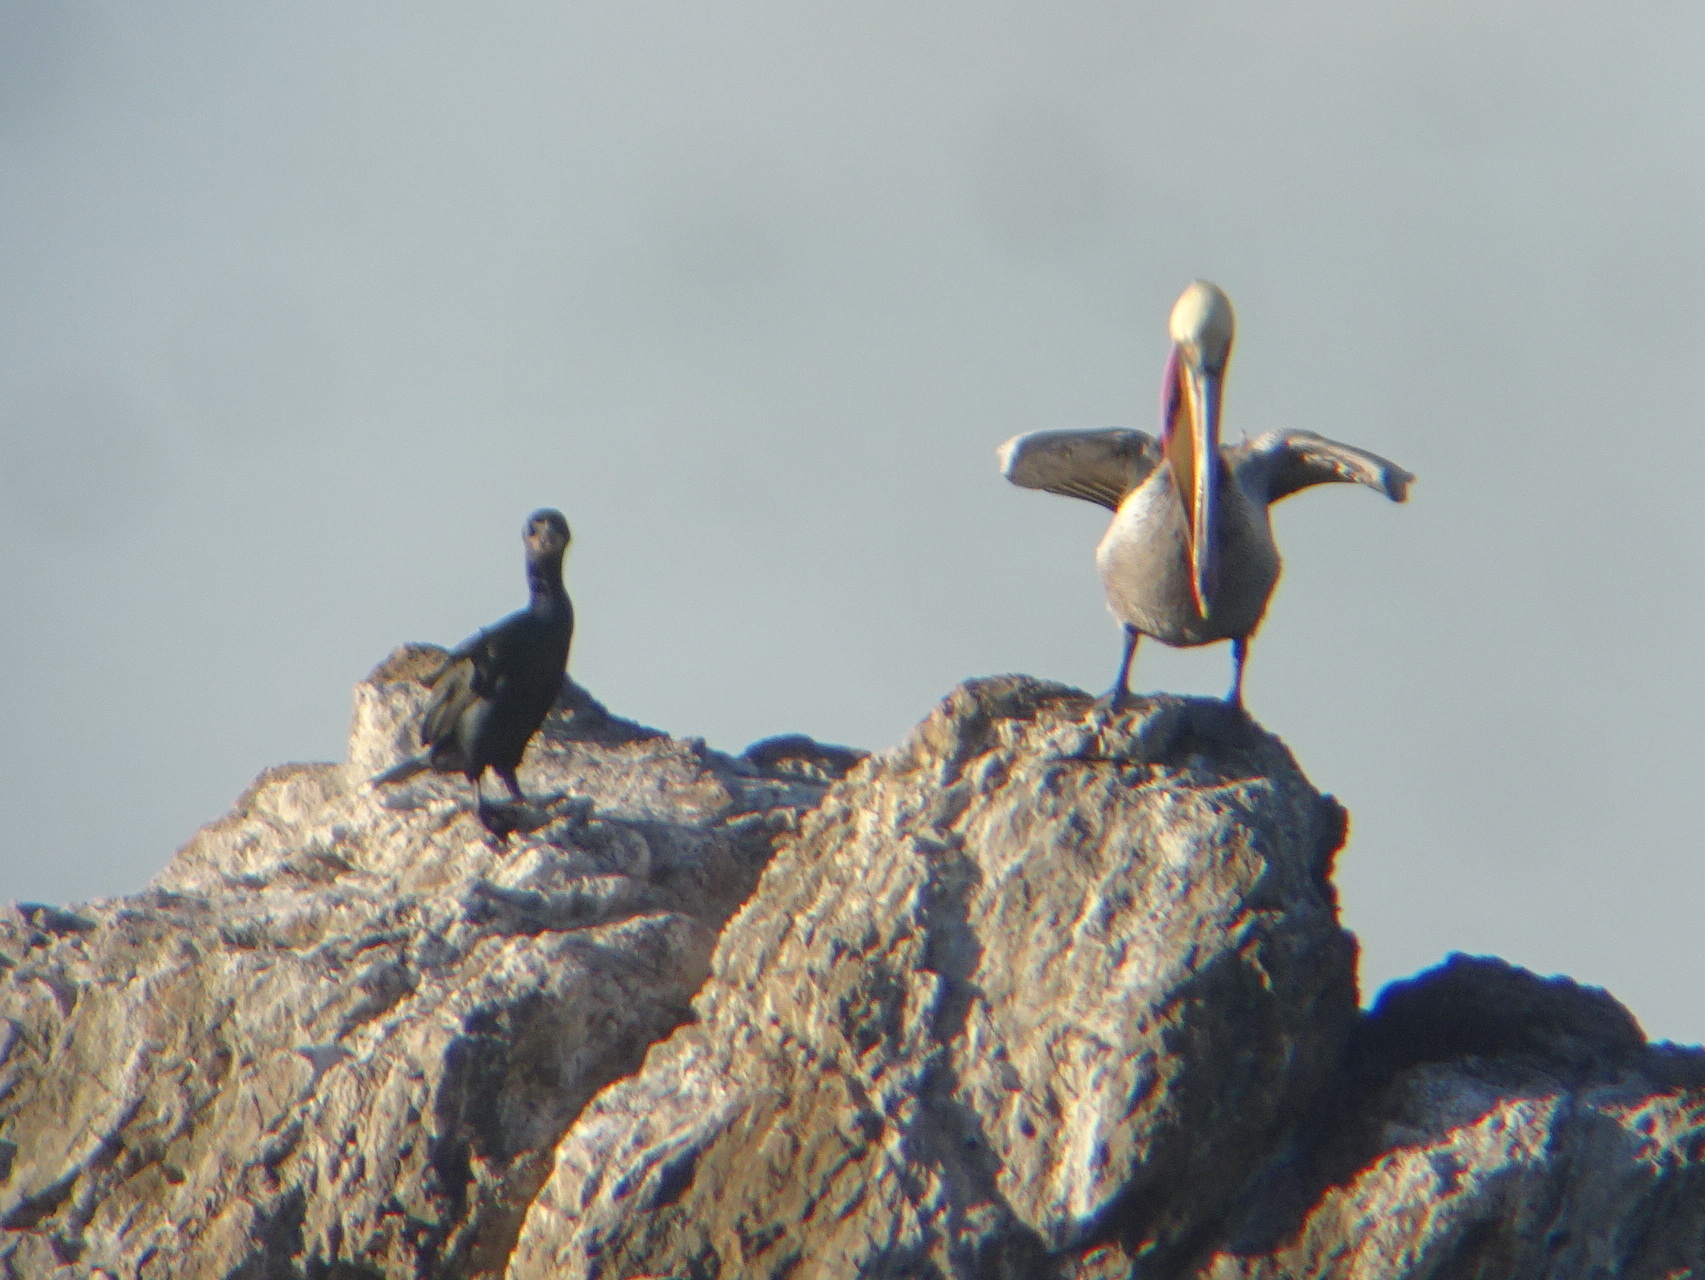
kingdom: Animalia
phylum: Chordata
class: Aves
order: Suliformes
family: Phalacrocoracidae
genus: Urile
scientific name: Urile penicillatus
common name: Brandt's cormorant
